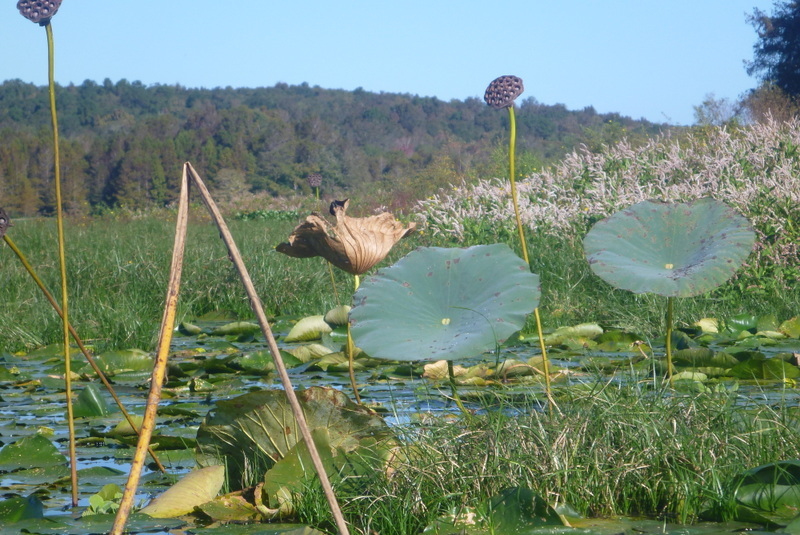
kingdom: Plantae
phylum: Tracheophyta
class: Magnoliopsida
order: Proteales
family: Nelumbonaceae
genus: Nelumbo
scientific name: Nelumbo lutea
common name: American lotus
